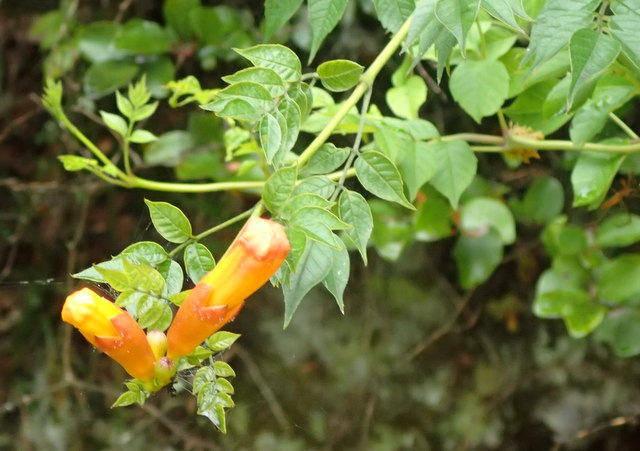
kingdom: Plantae
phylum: Tracheophyta
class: Magnoliopsida
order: Lamiales
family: Bignoniaceae
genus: Campsis
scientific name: Campsis radicans
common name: Trumpet-creeper
